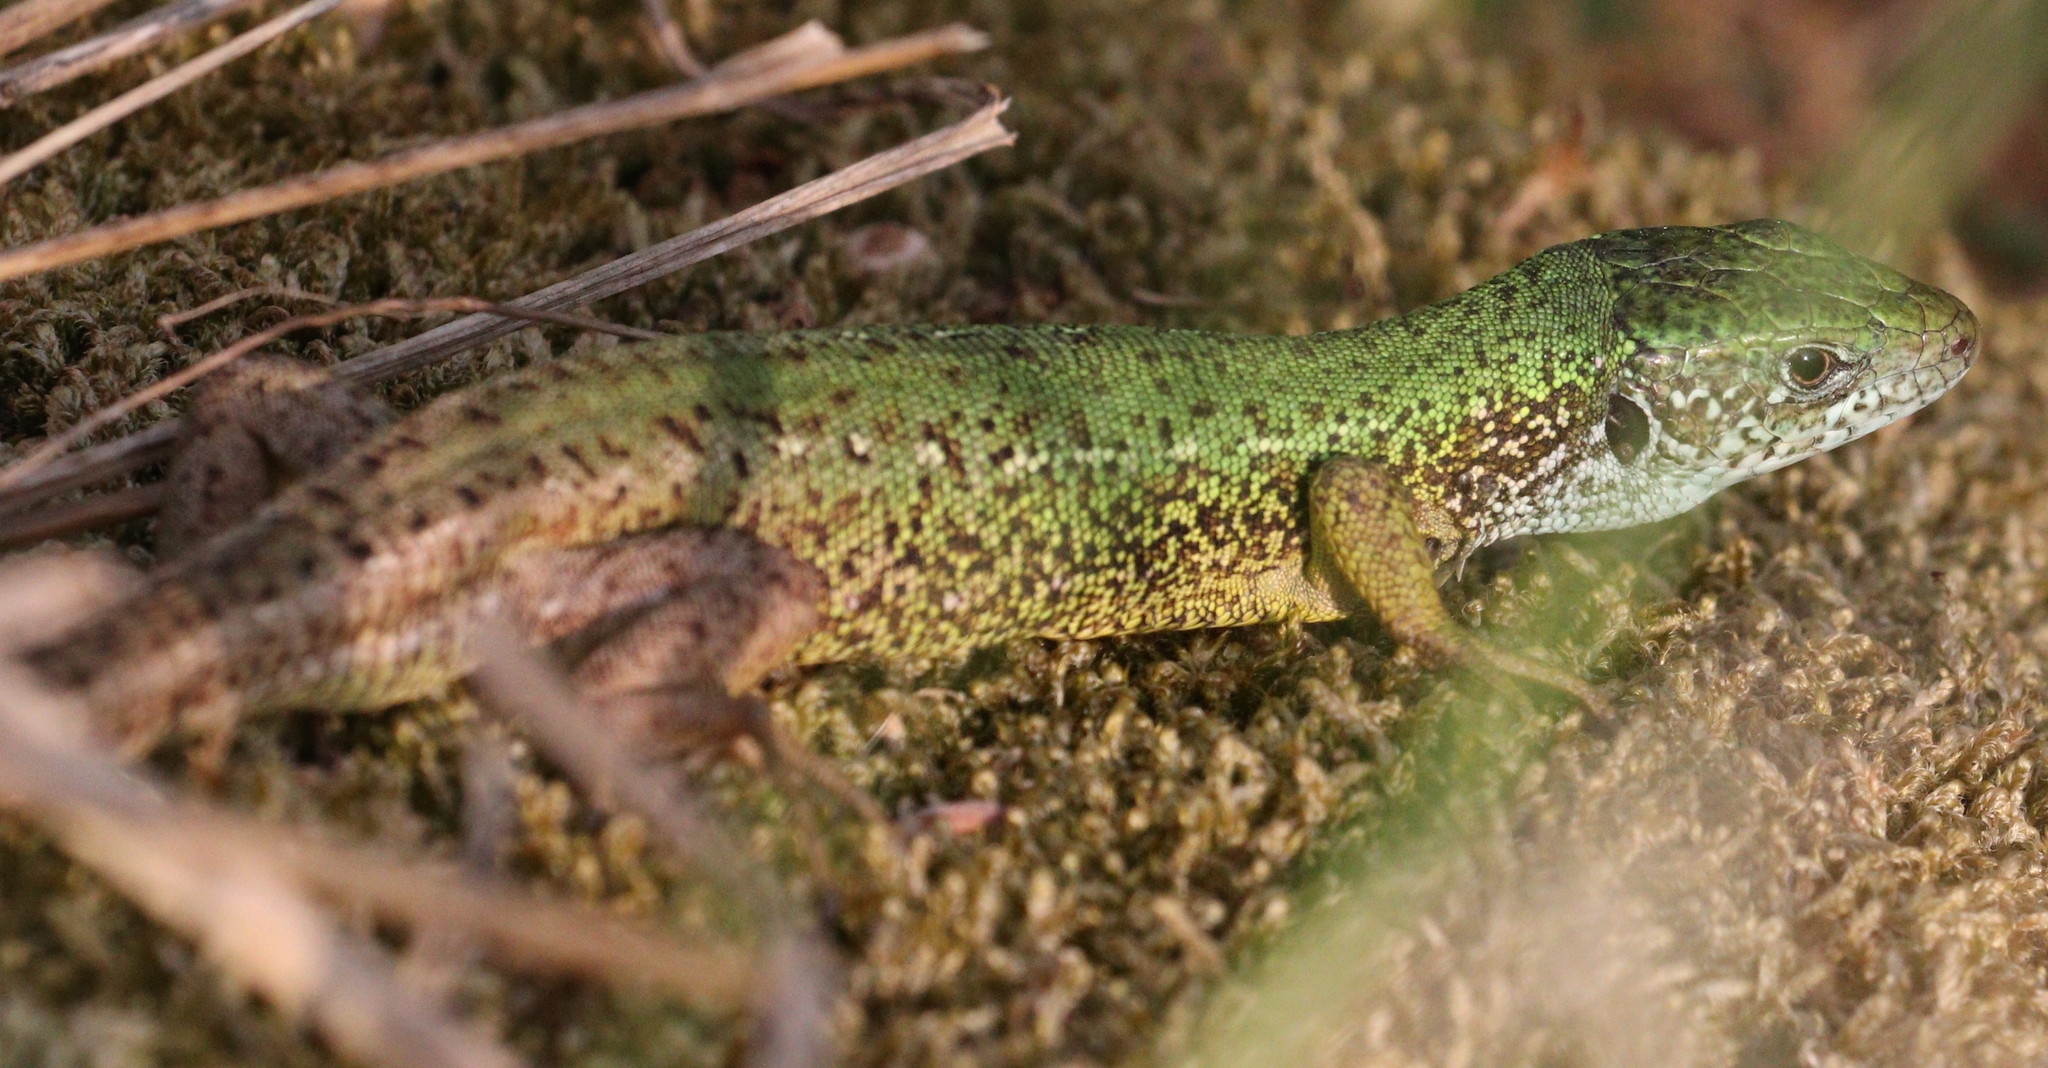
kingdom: Animalia
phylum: Chordata
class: Squamata
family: Lacertidae
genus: Lacerta
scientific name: Lacerta viridis
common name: European green lizard
